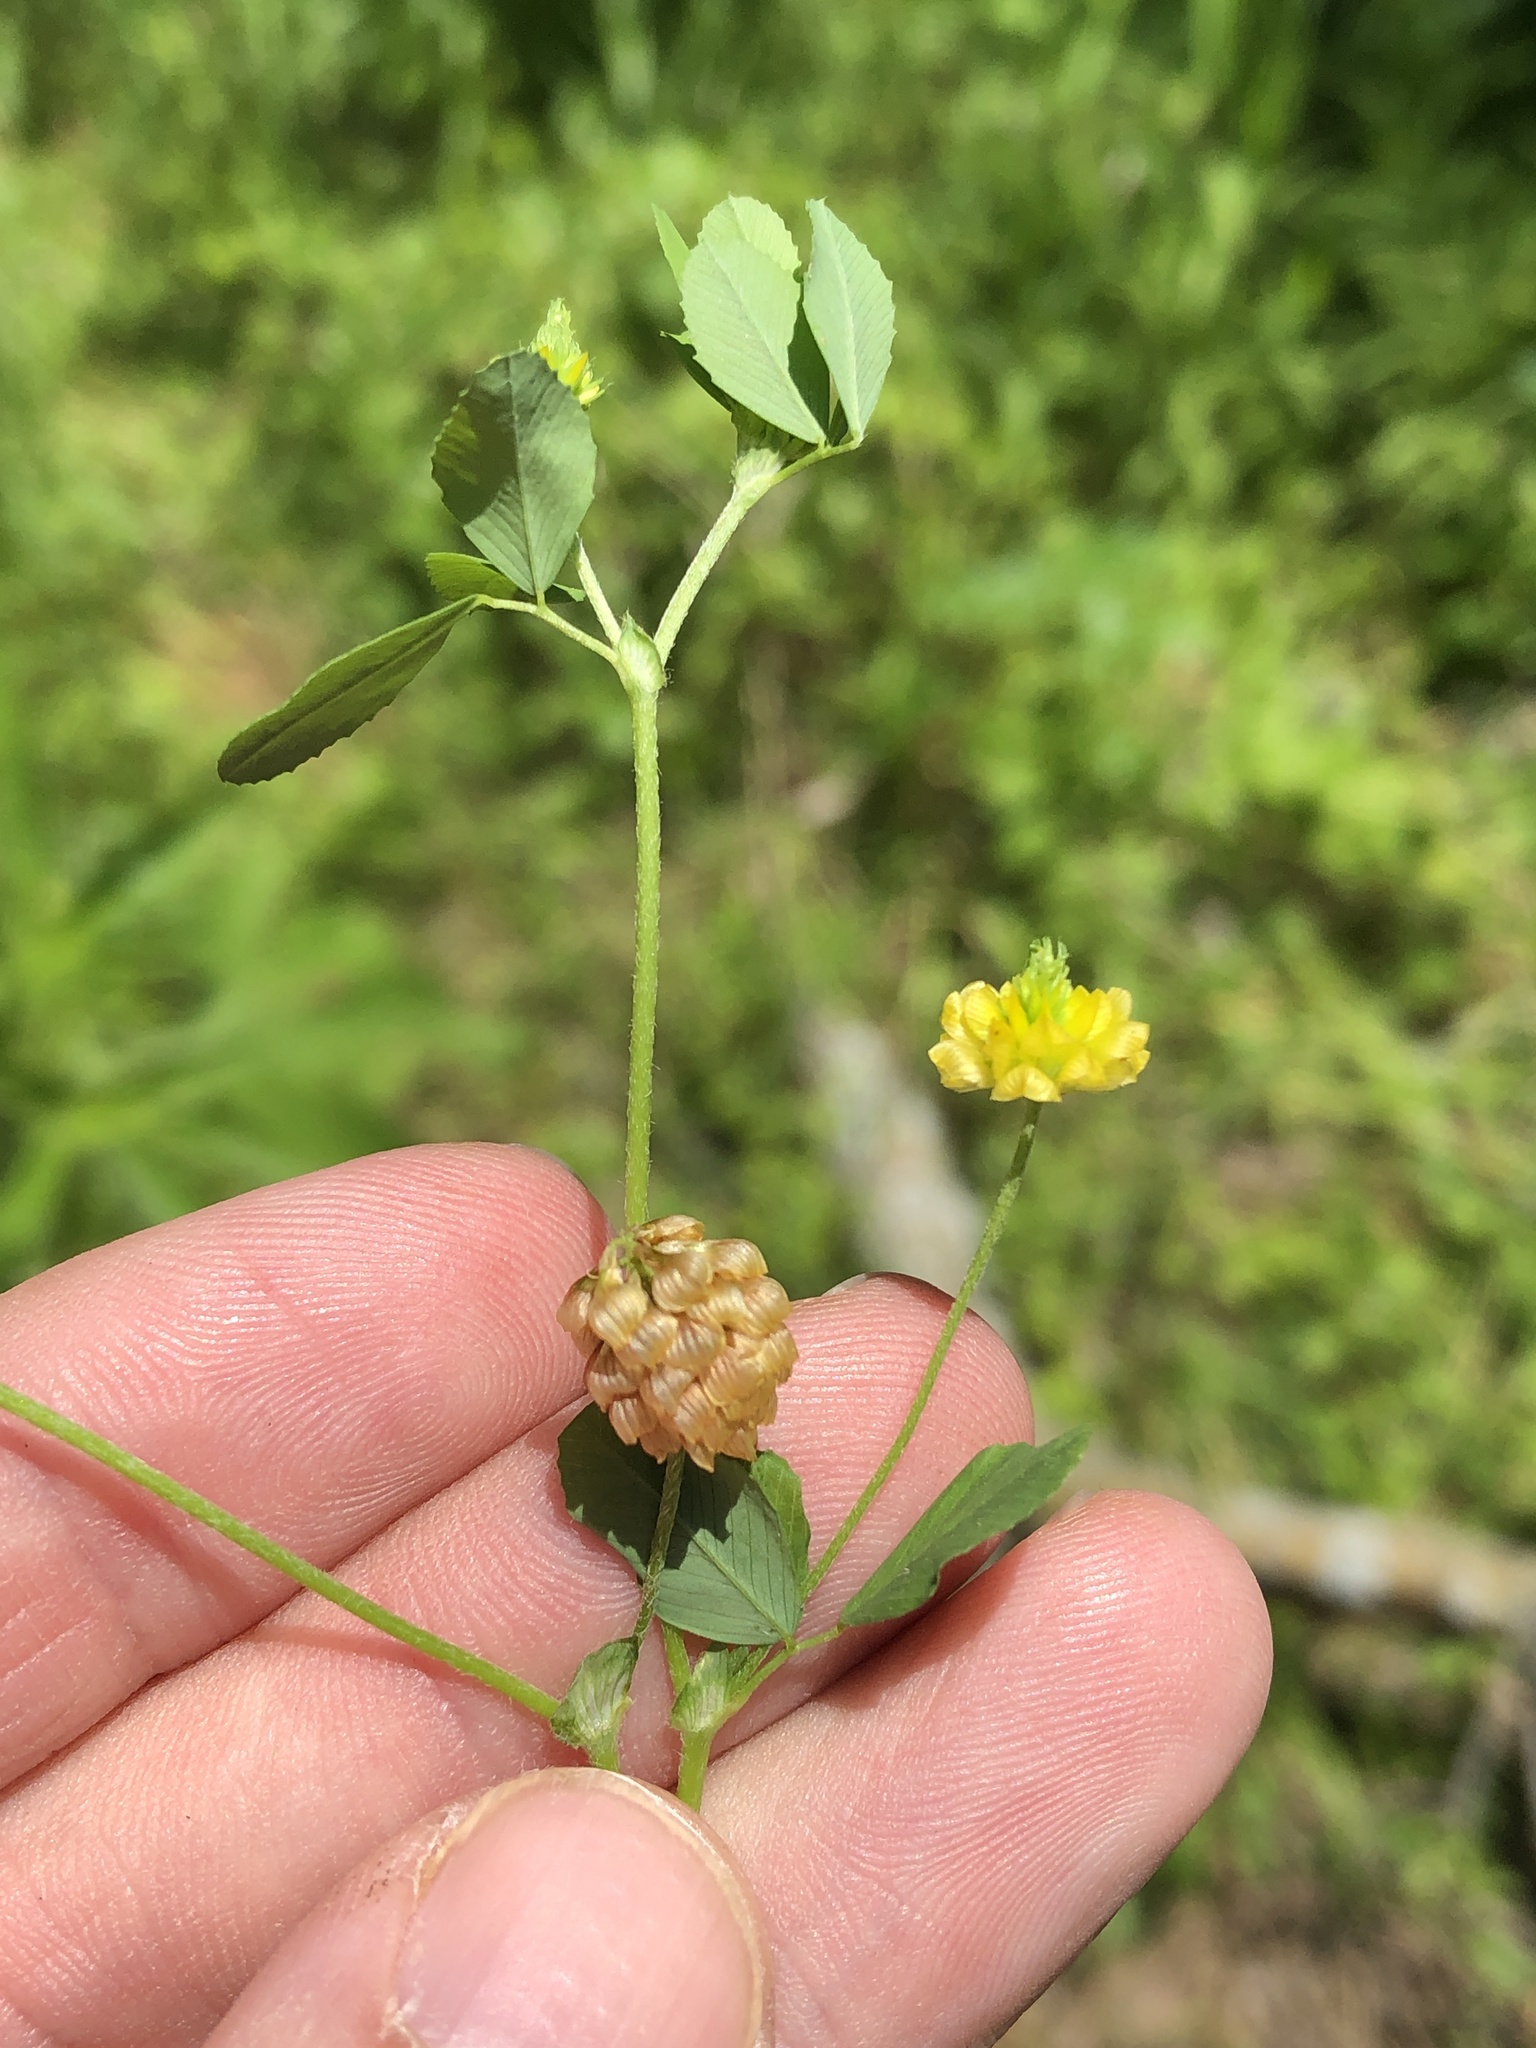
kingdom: Plantae
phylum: Tracheophyta
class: Magnoliopsida
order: Fabales
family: Fabaceae
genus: Trifolium
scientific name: Trifolium campestre
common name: Field clover
